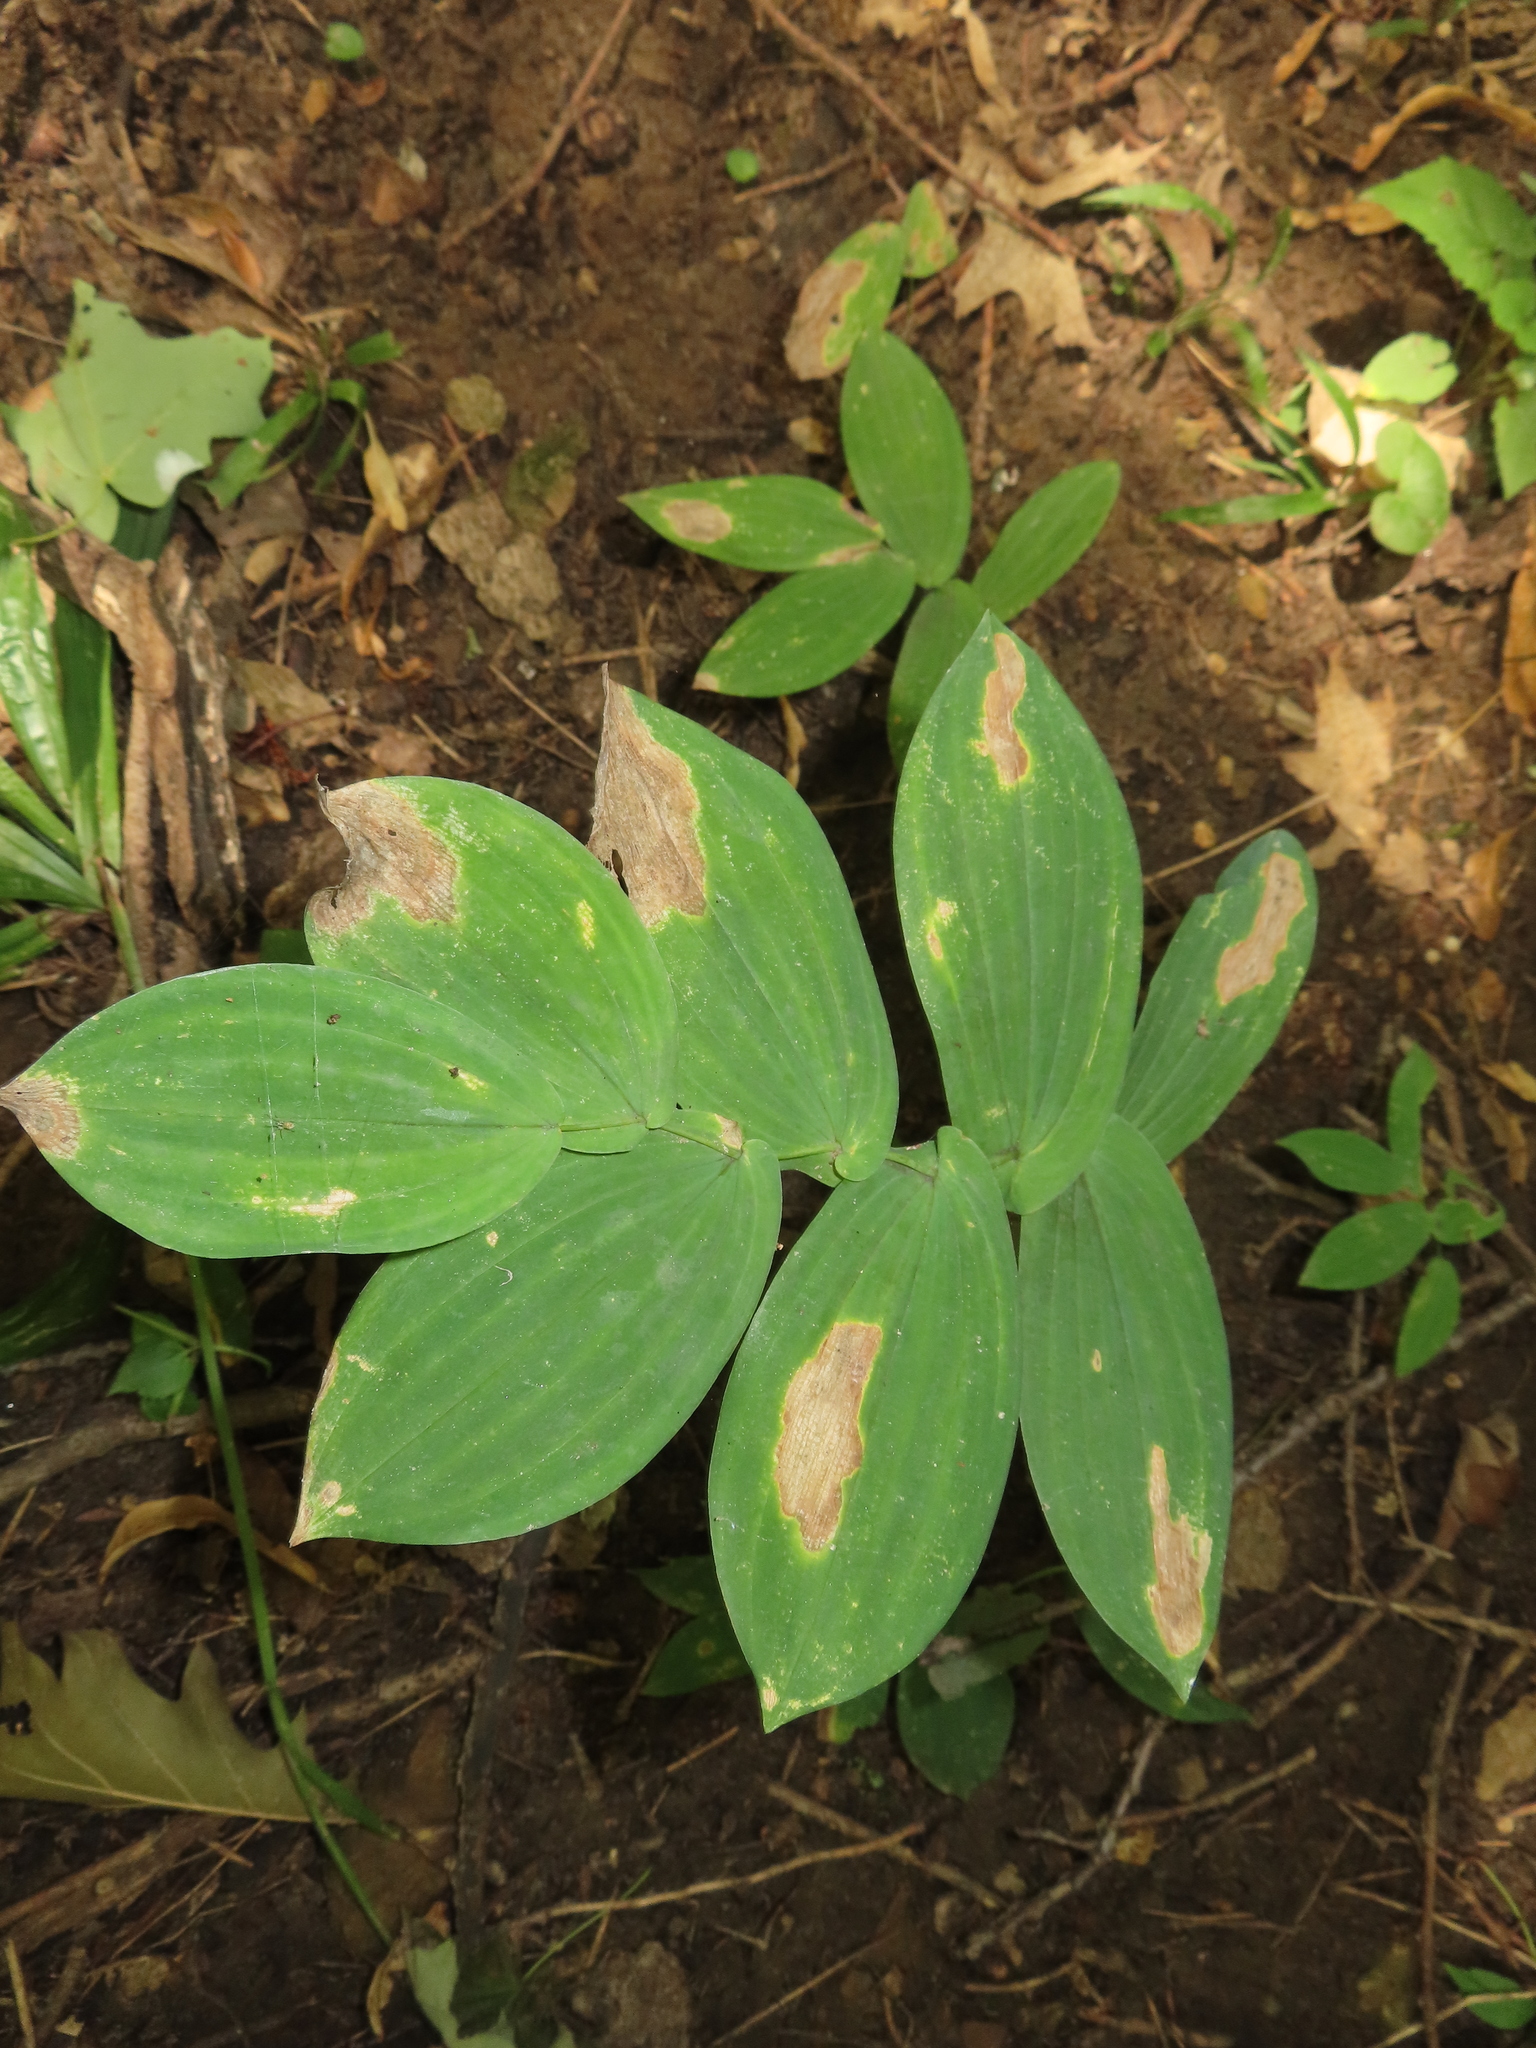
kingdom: Plantae
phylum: Tracheophyta
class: Liliopsida
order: Liliales
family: Colchicaceae
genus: Uvularia
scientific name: Uvularia grandiflora
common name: Bellwort
